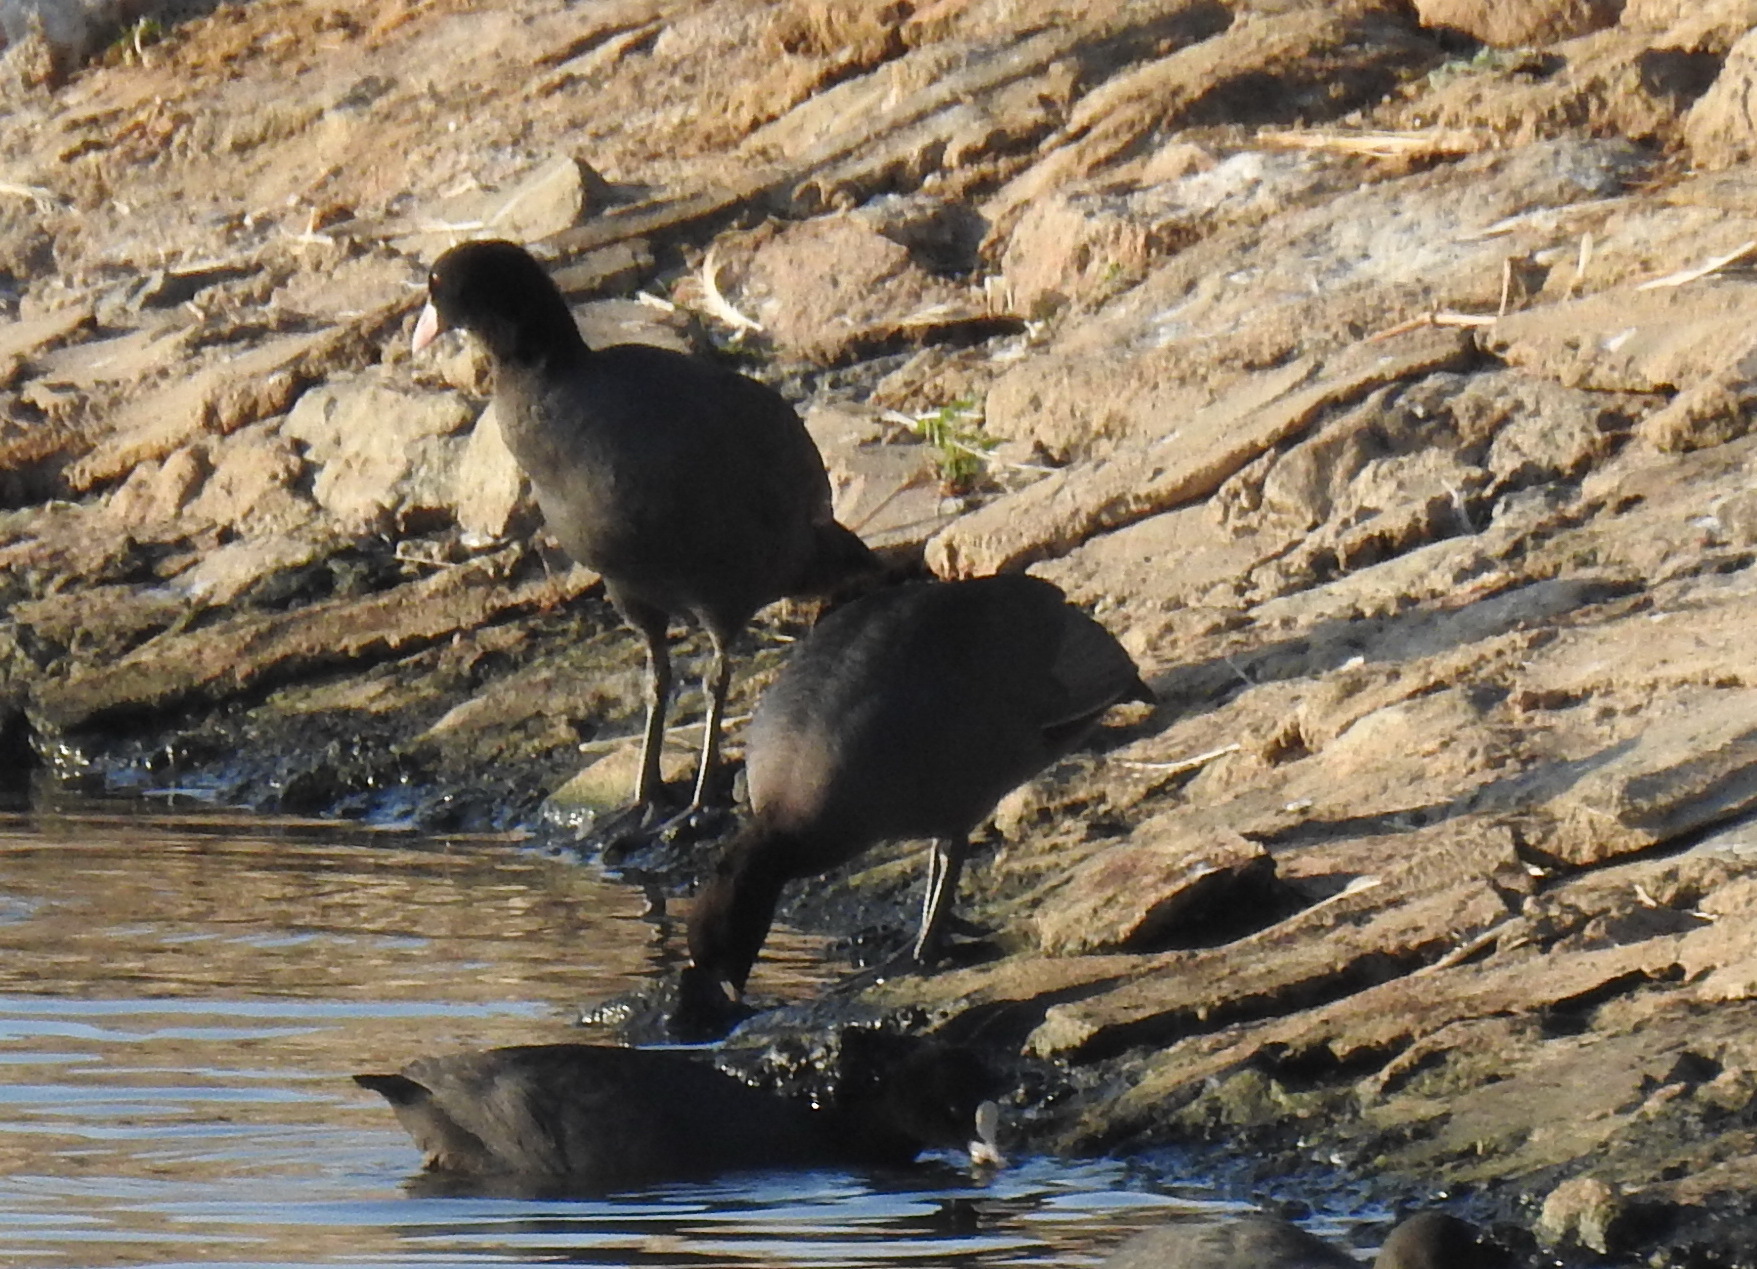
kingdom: Animalia
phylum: Chordata
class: Aves
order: Gruiformes
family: Rallidae
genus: Fulica
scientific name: Fulica atra
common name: Eurasian coot
